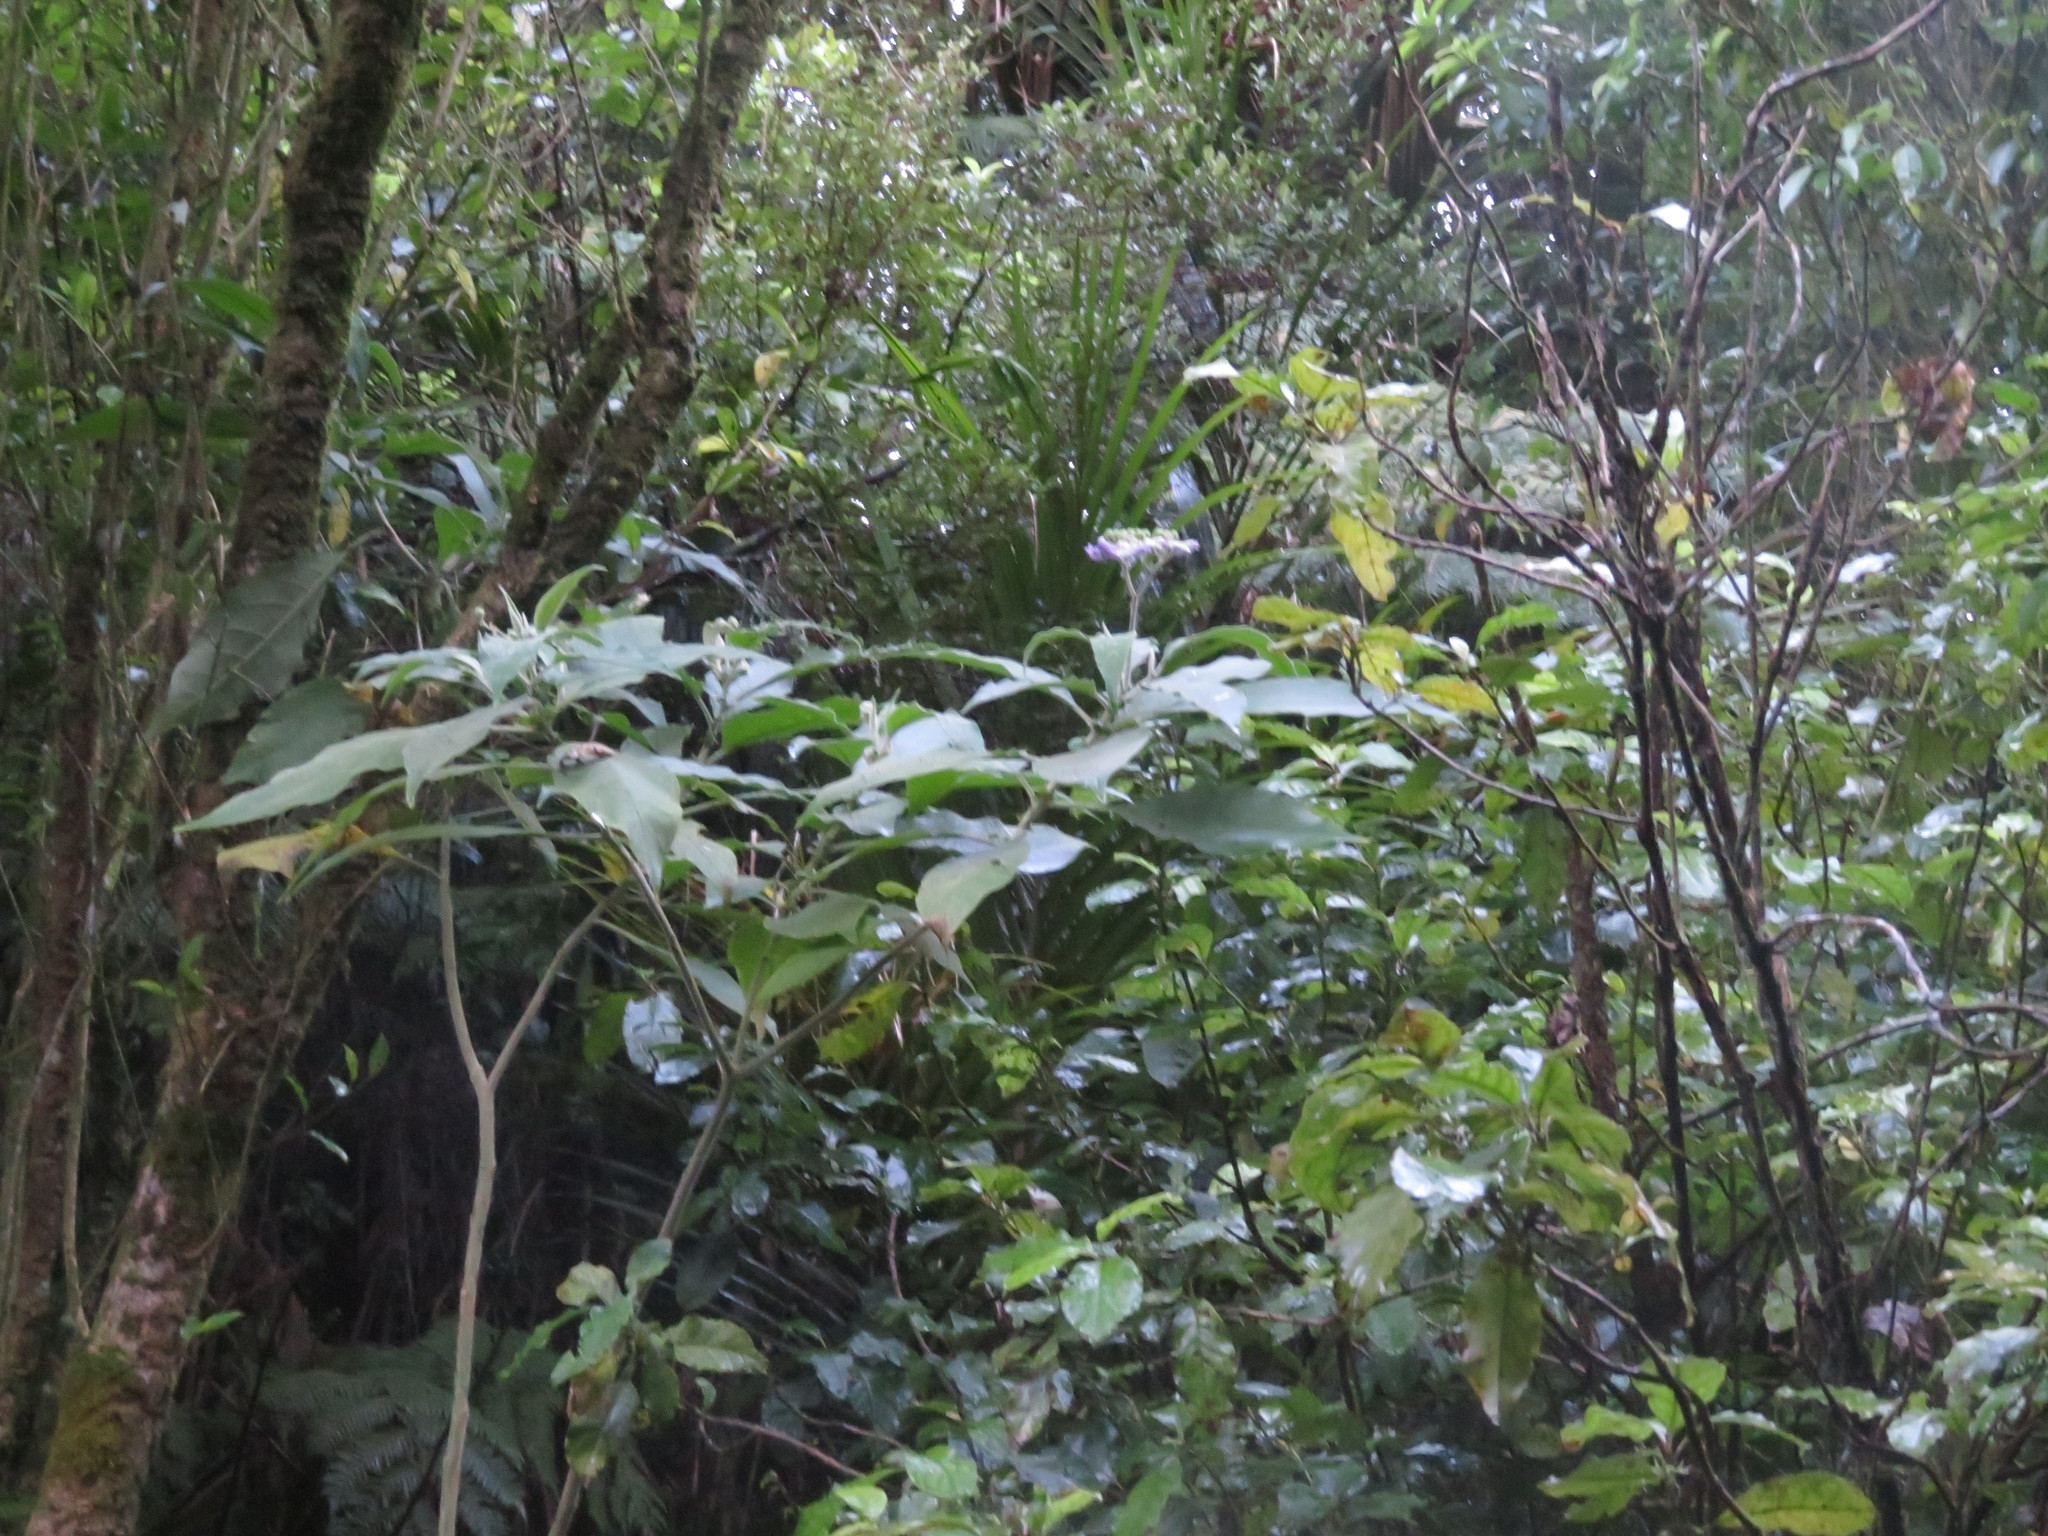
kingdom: Plantae
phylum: Tracheophyta
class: Magnoliopsida
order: Solanales
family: Solanaceae
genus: Solanum
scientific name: Solanum mauritianum
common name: Earleaf nightshade
